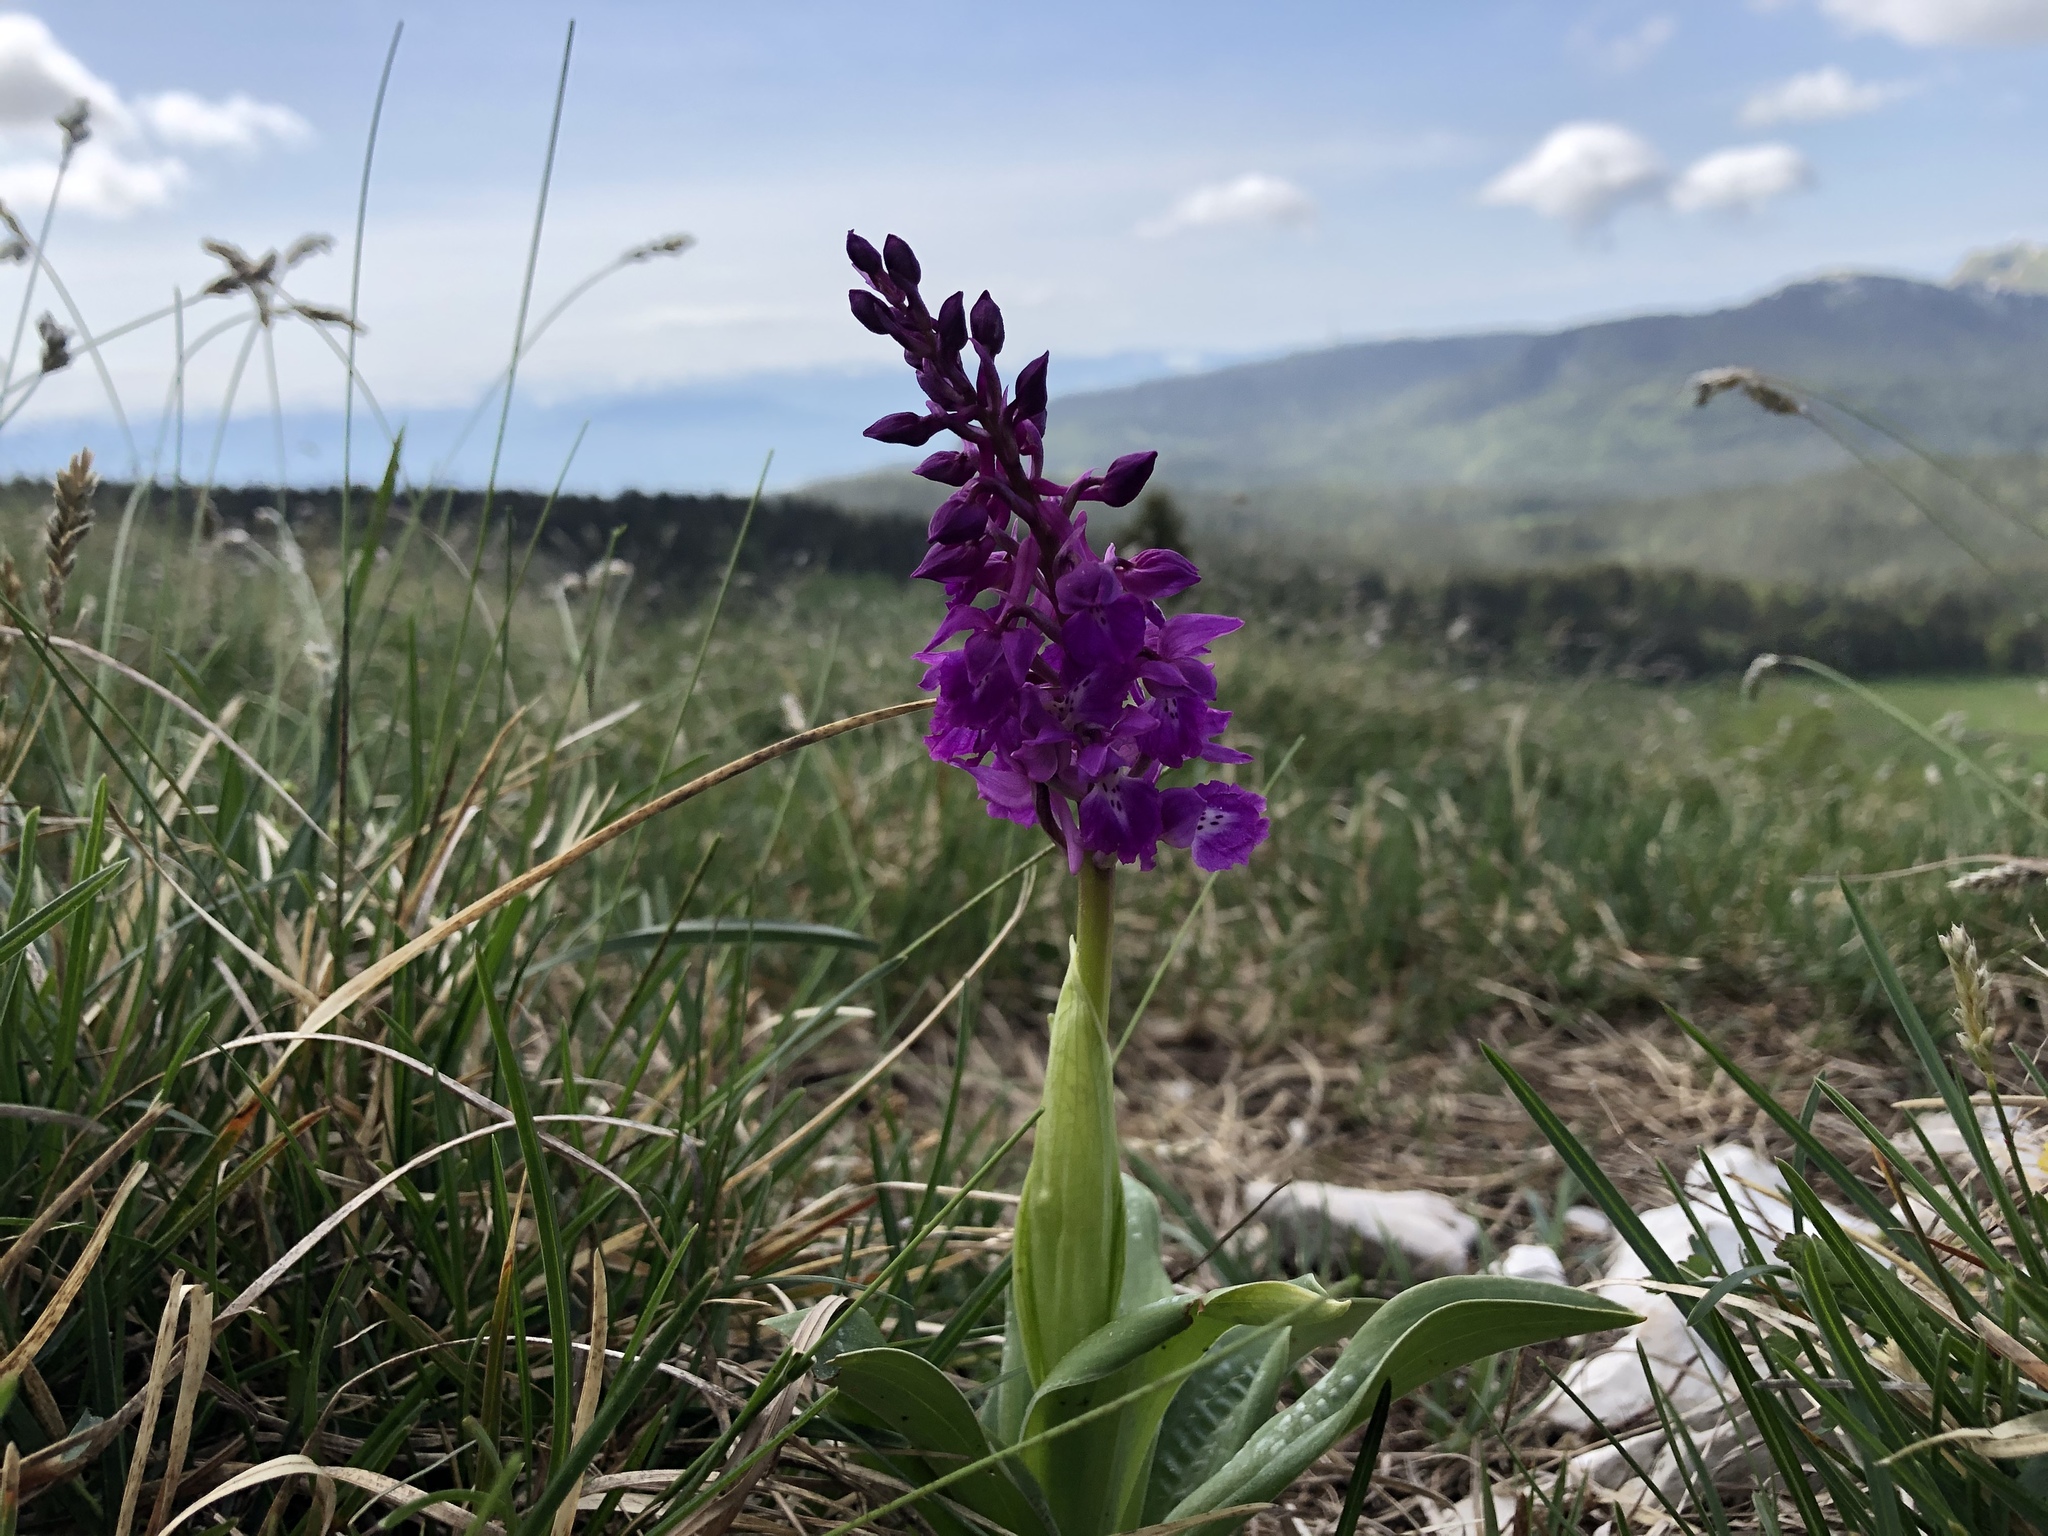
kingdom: Plantae
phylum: Tracheophyta
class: Liliopsida
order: Asparagales
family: Orchidaceae
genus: Orchis
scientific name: Orchis mascula
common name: Early-purple orchid
